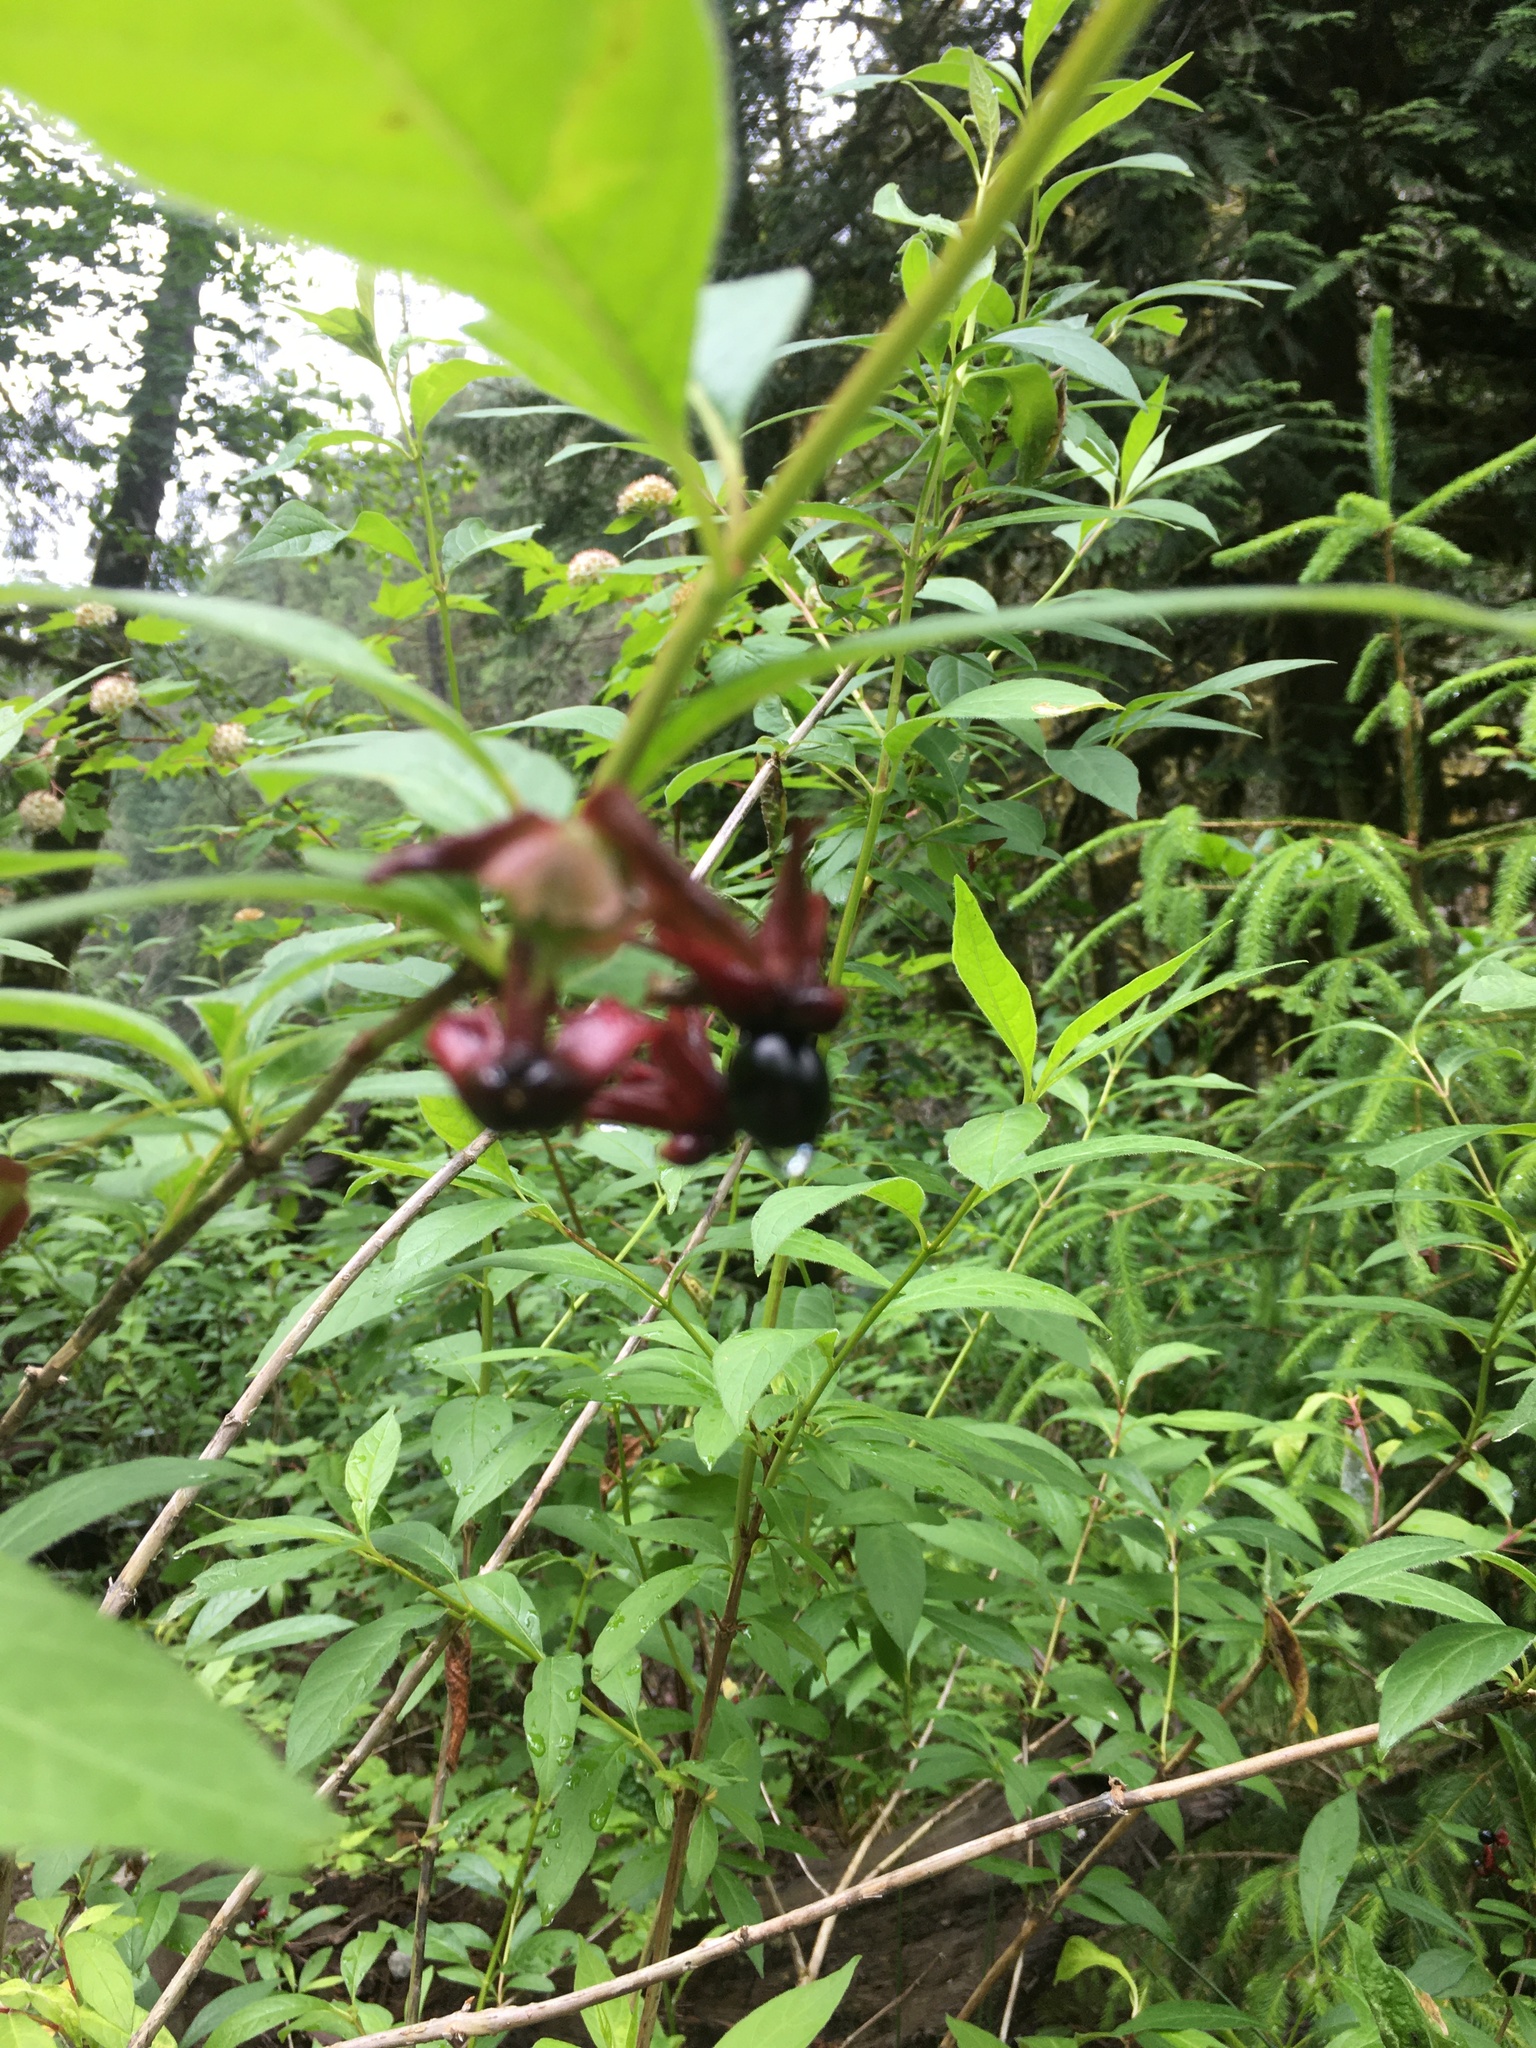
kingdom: Plantae
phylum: Tracheophyta
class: Magnoliopsida
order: Dipsacales
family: Caprifoliaceae
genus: Lonicera
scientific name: Lonicera involucrata
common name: Californian honeysuckle
